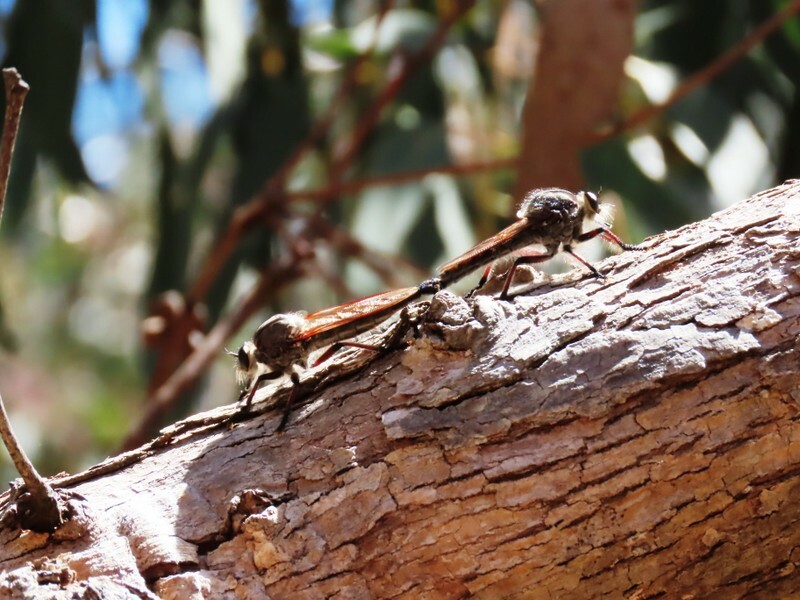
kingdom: Animalia
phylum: Arthropoda
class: Insecta
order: Diptera
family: Asilidae
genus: Neoaratus
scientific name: Neoaratus hercules
